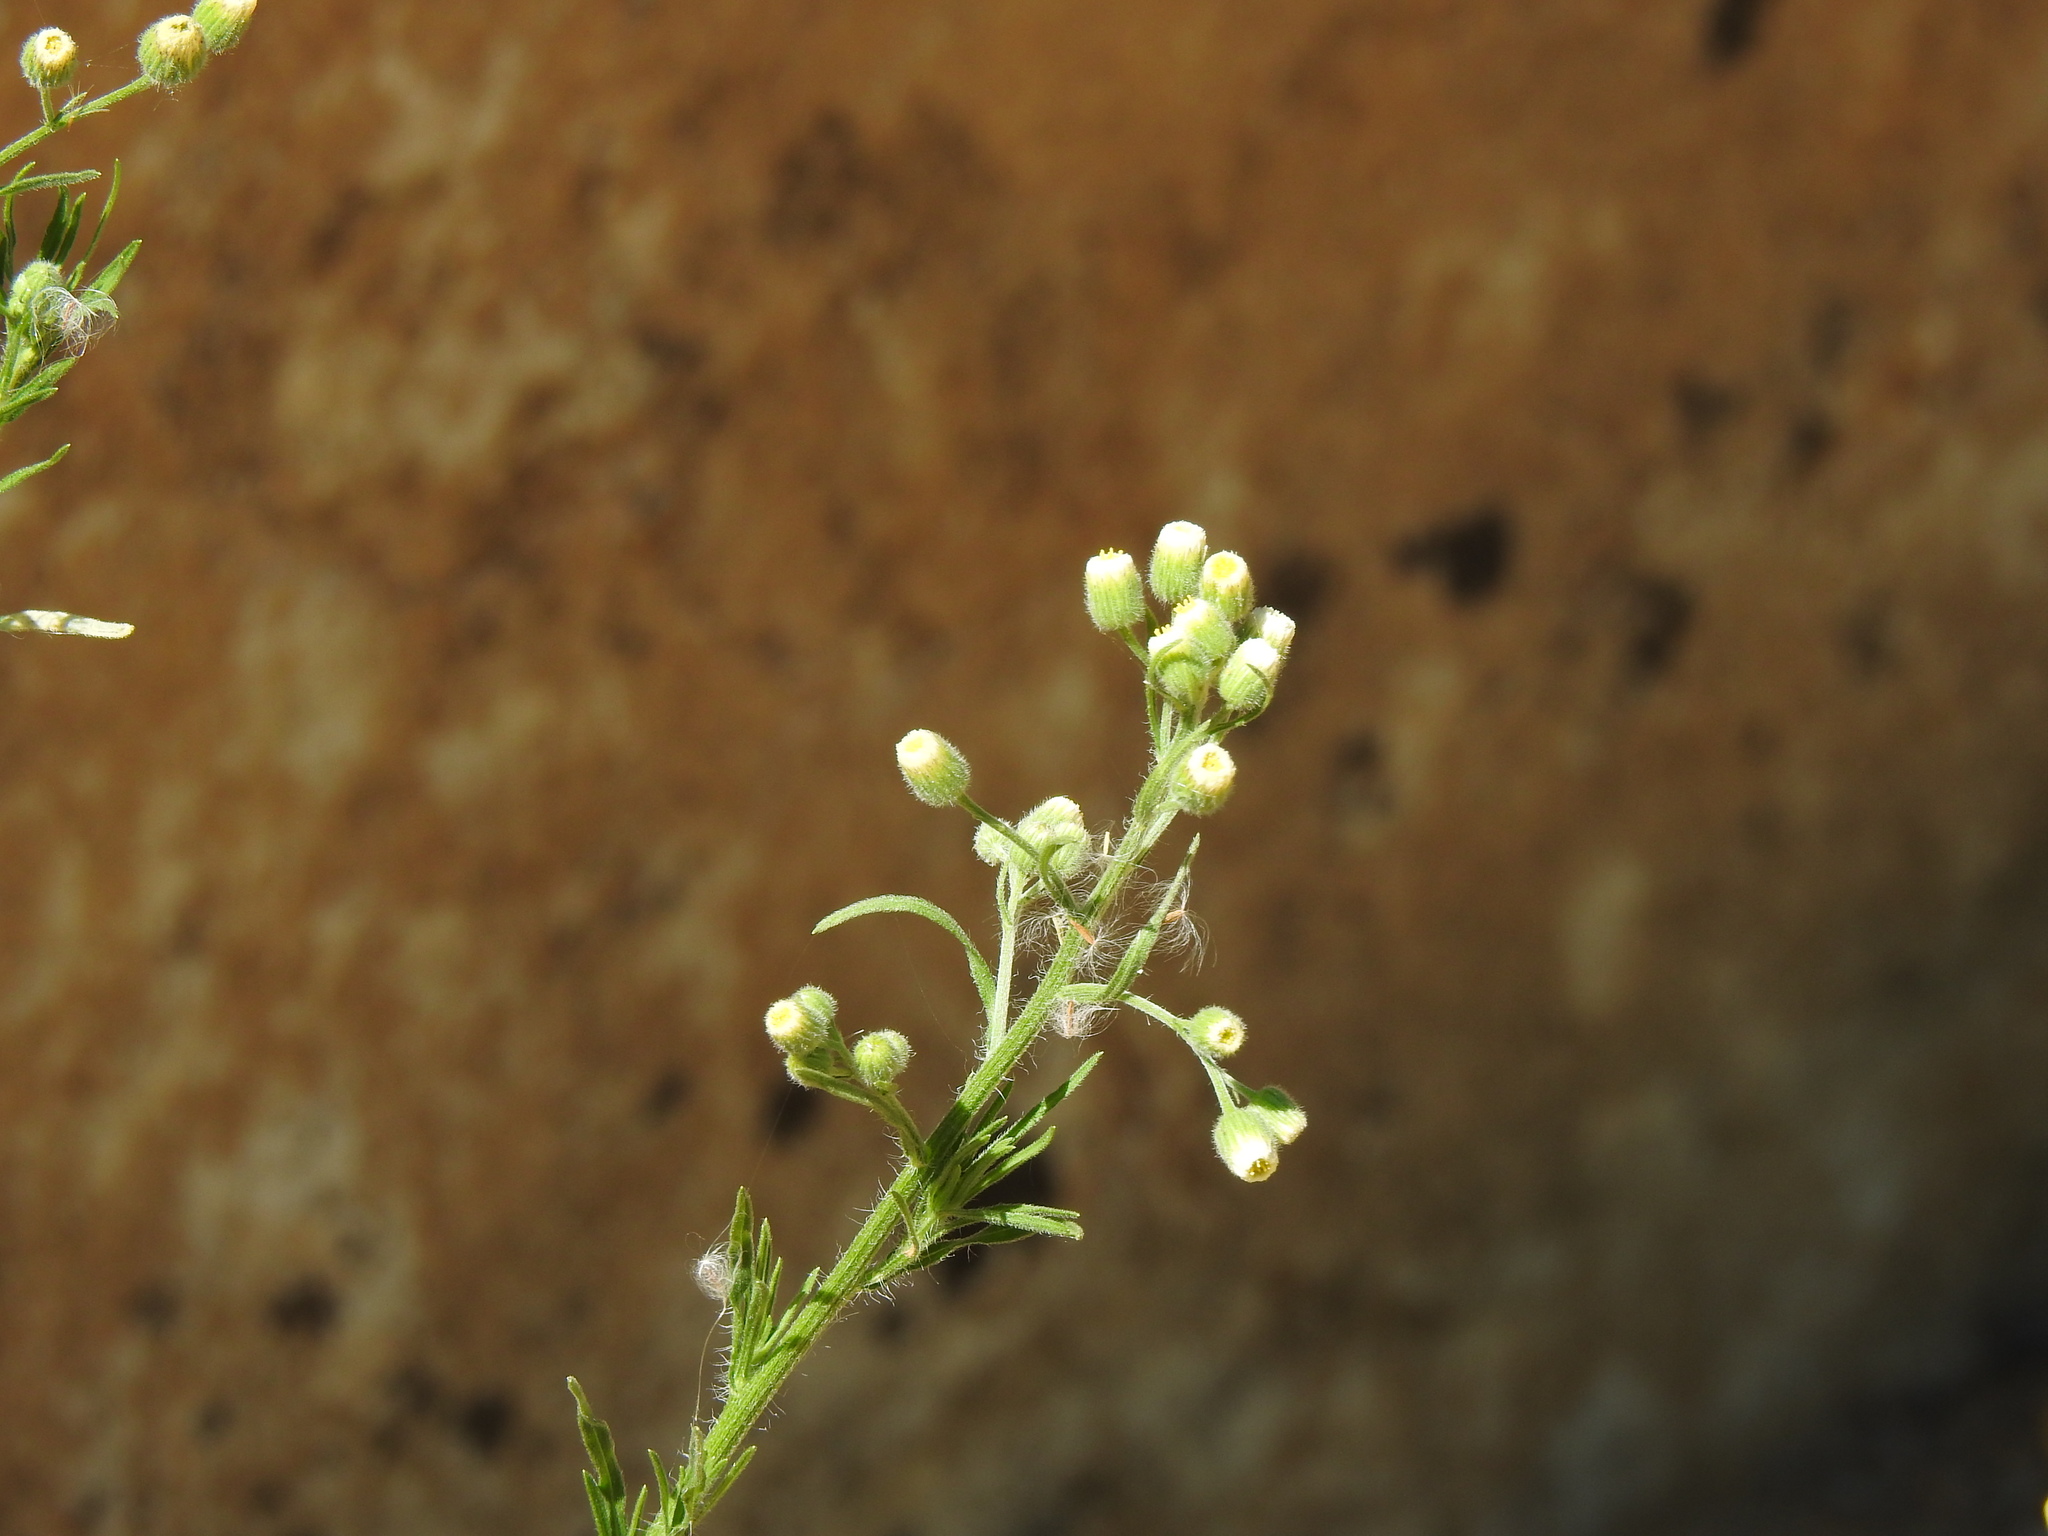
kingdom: Plantae
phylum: Tracheophyta
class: Magnoliopsida
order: Asterales
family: Asteraceae
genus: Erigeron
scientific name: Erigeron bonariensis
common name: Argentine fleabane
